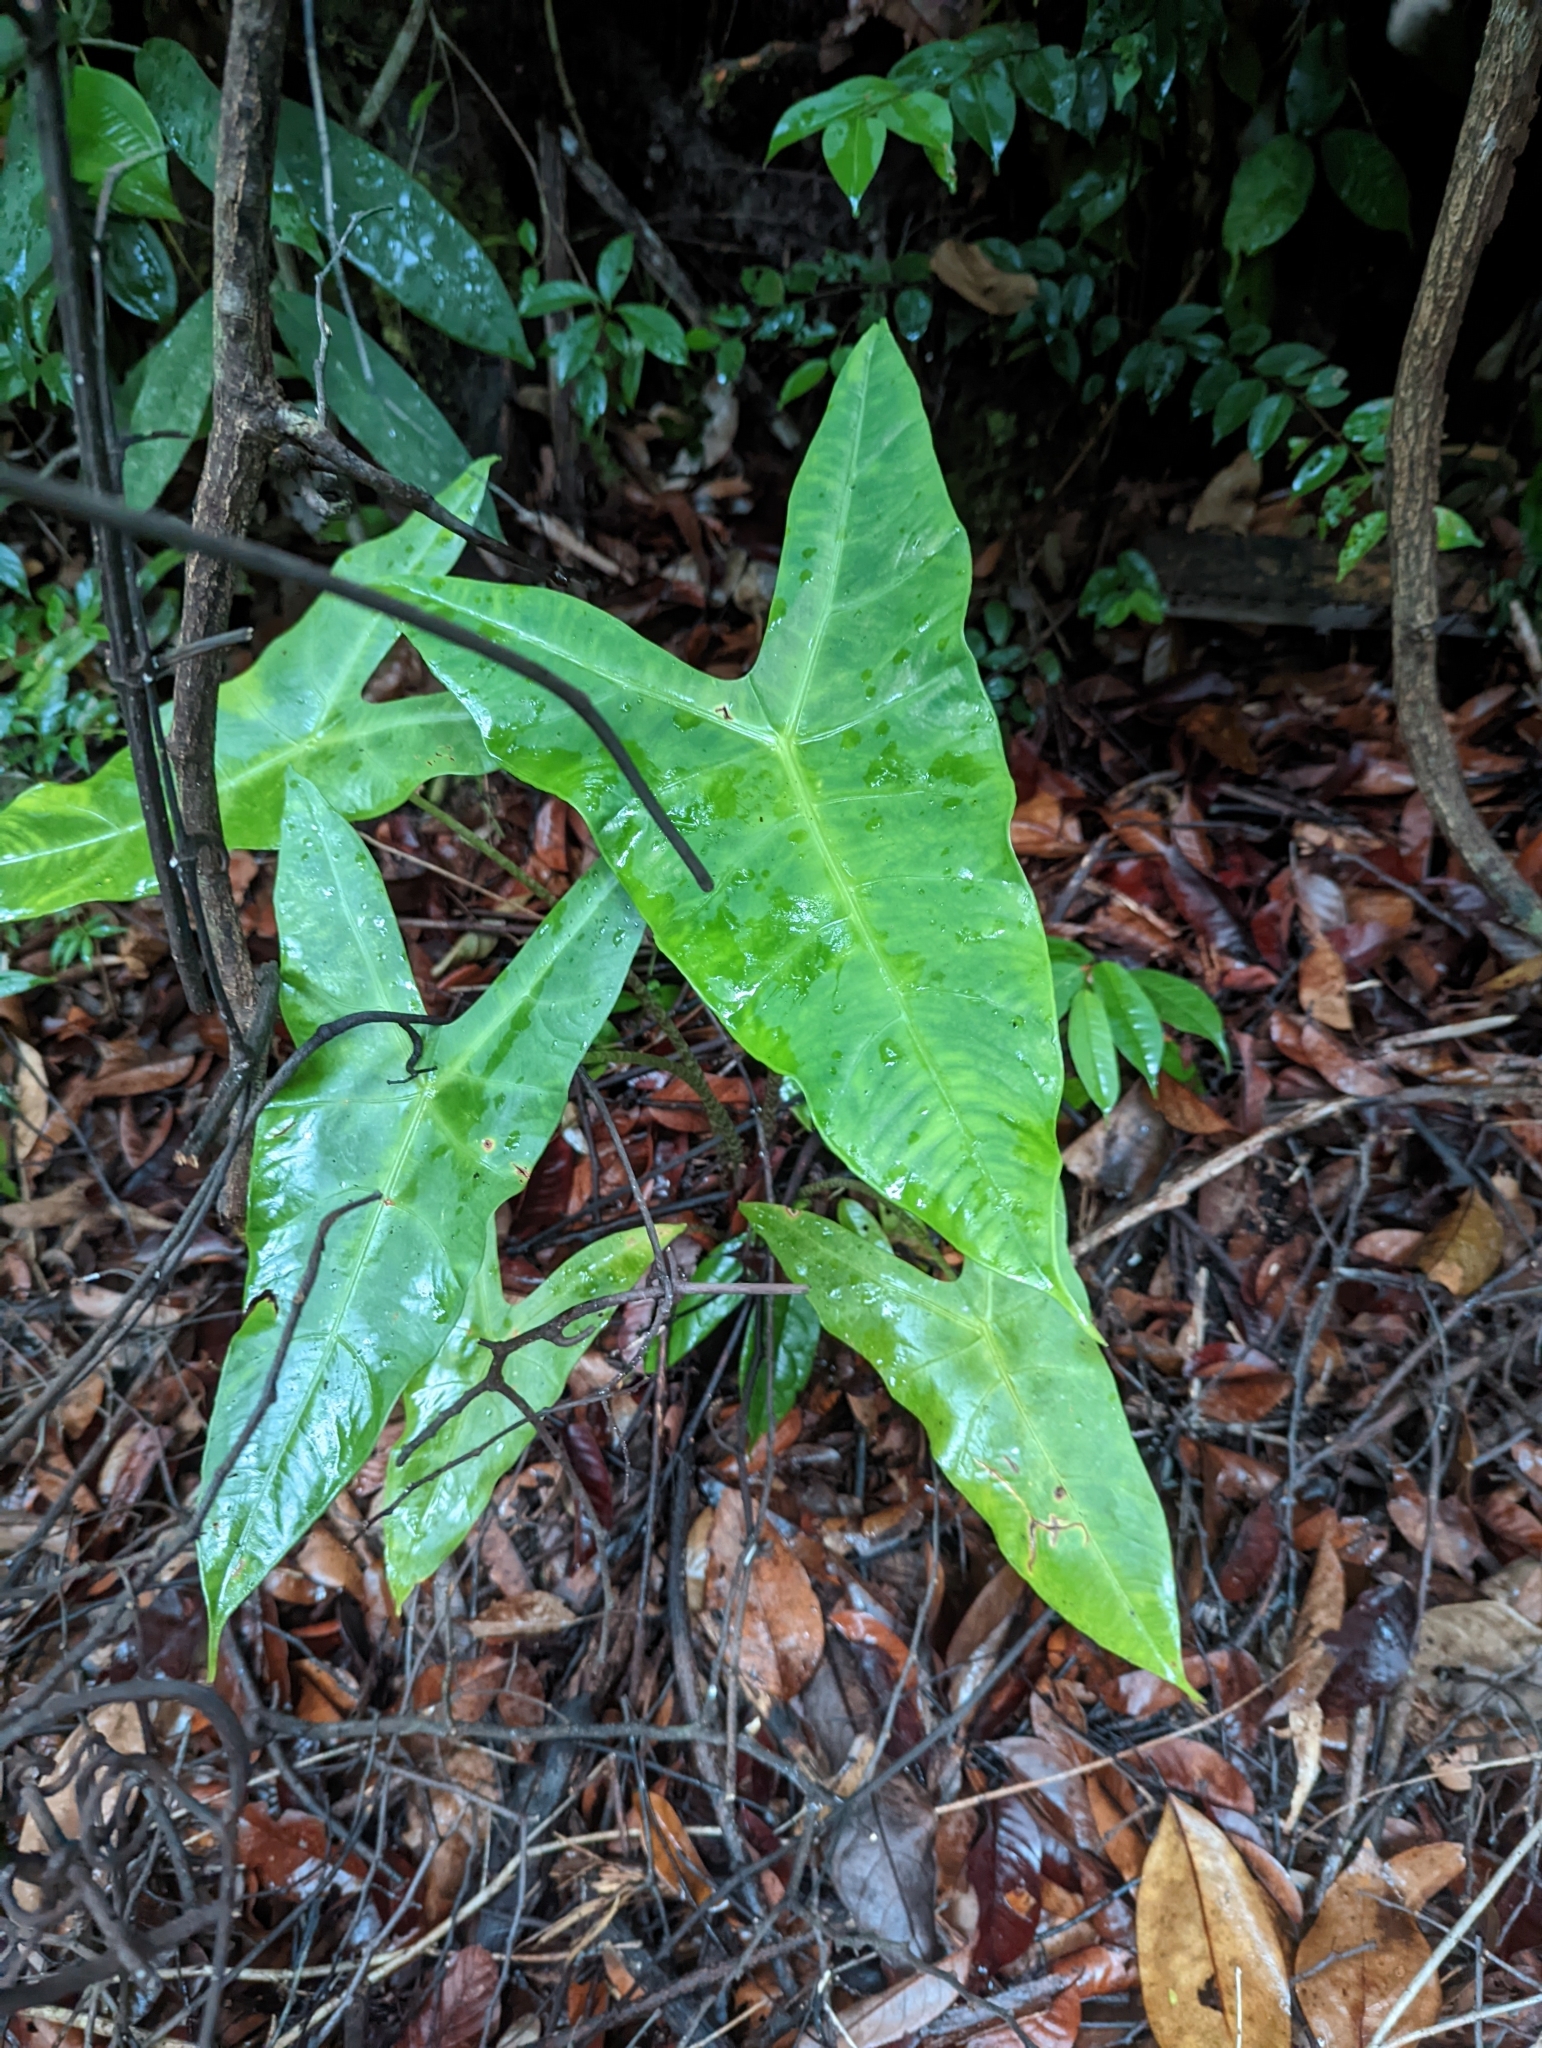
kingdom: Plantae
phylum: Tracheophyta
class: Liliopsida
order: Alismatales
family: Araceae
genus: Alocasia
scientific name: Alocasia longiloba
